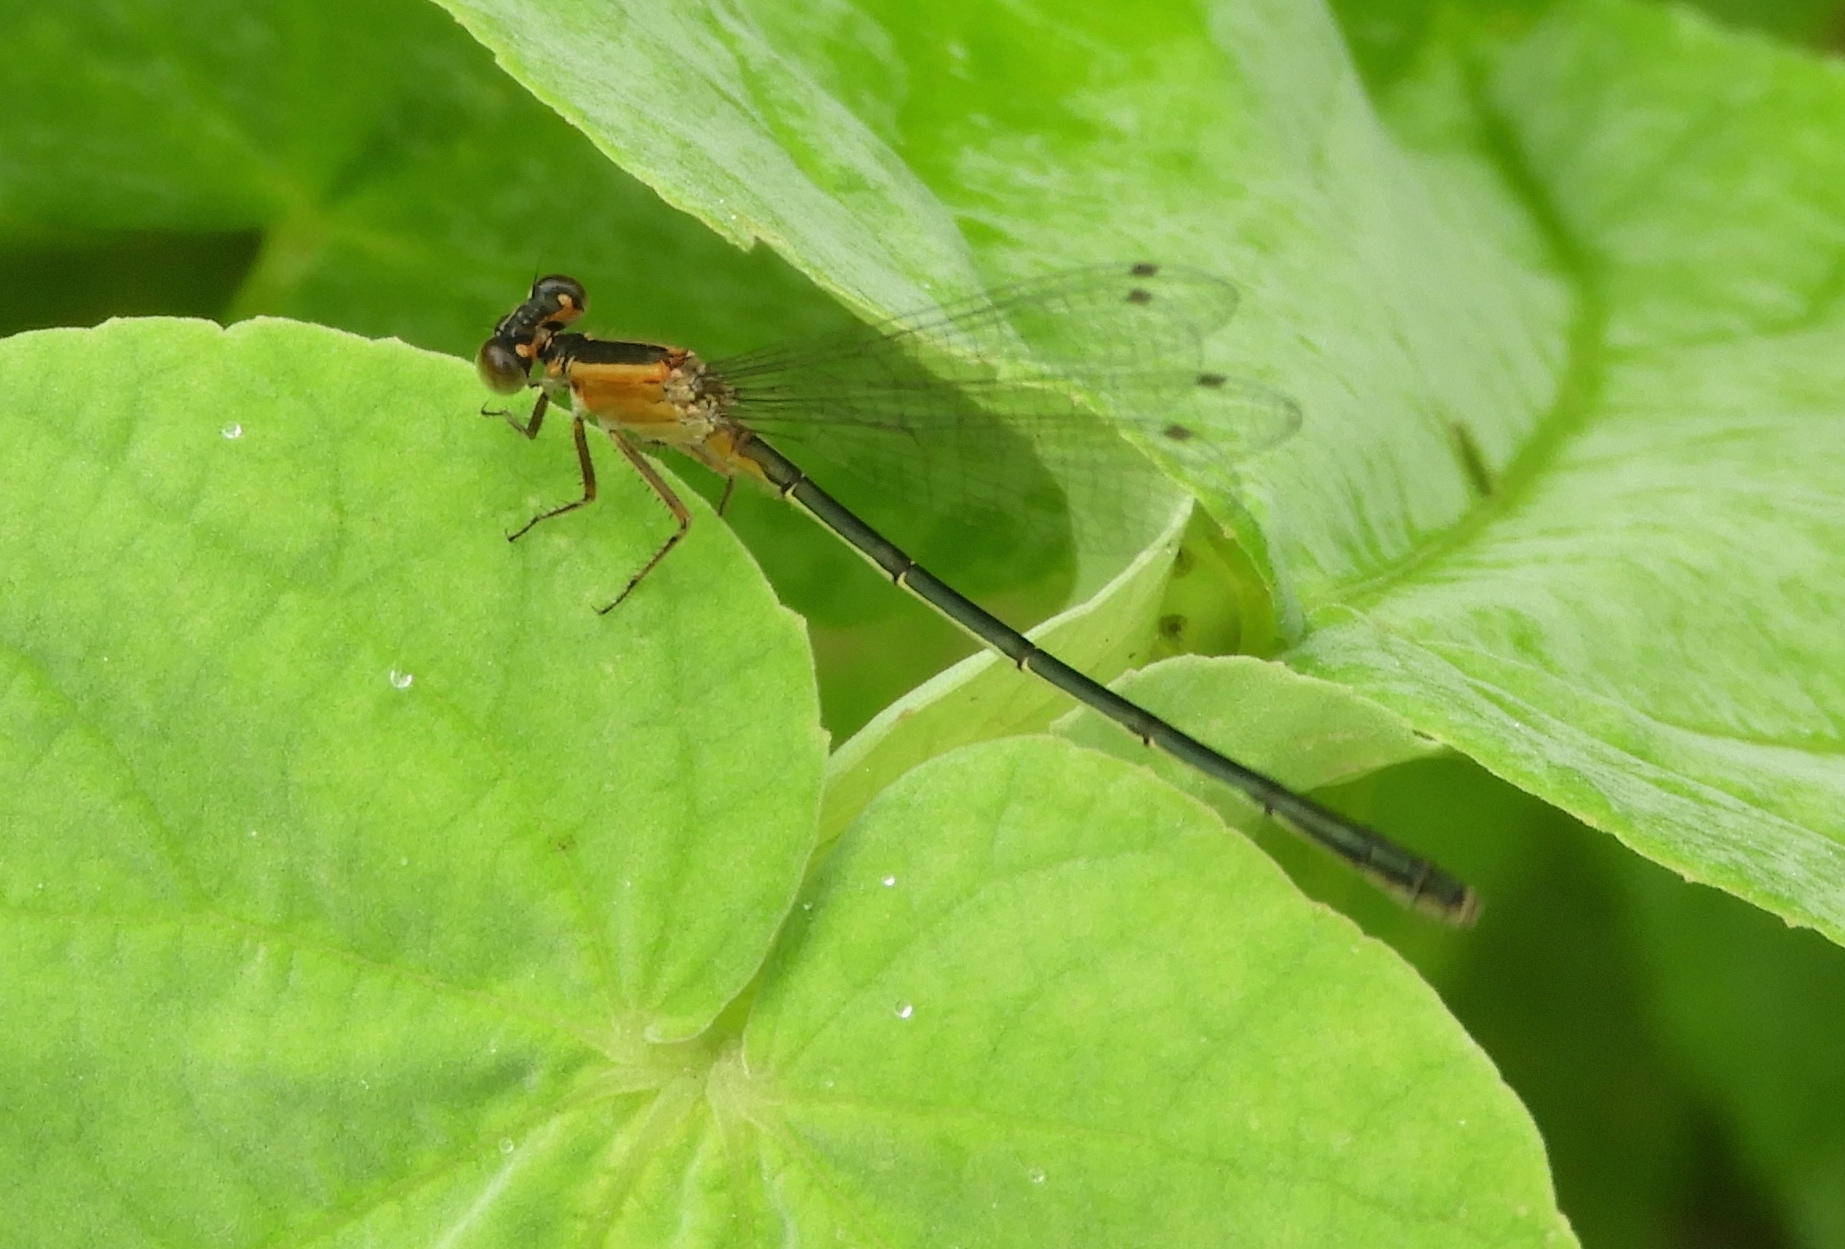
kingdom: Animalia
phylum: Arthropoda
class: Insecta
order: Odonata
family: Coenagrionidae
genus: Ischnura
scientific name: Ischnura ramburii
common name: Rambur's forktail
